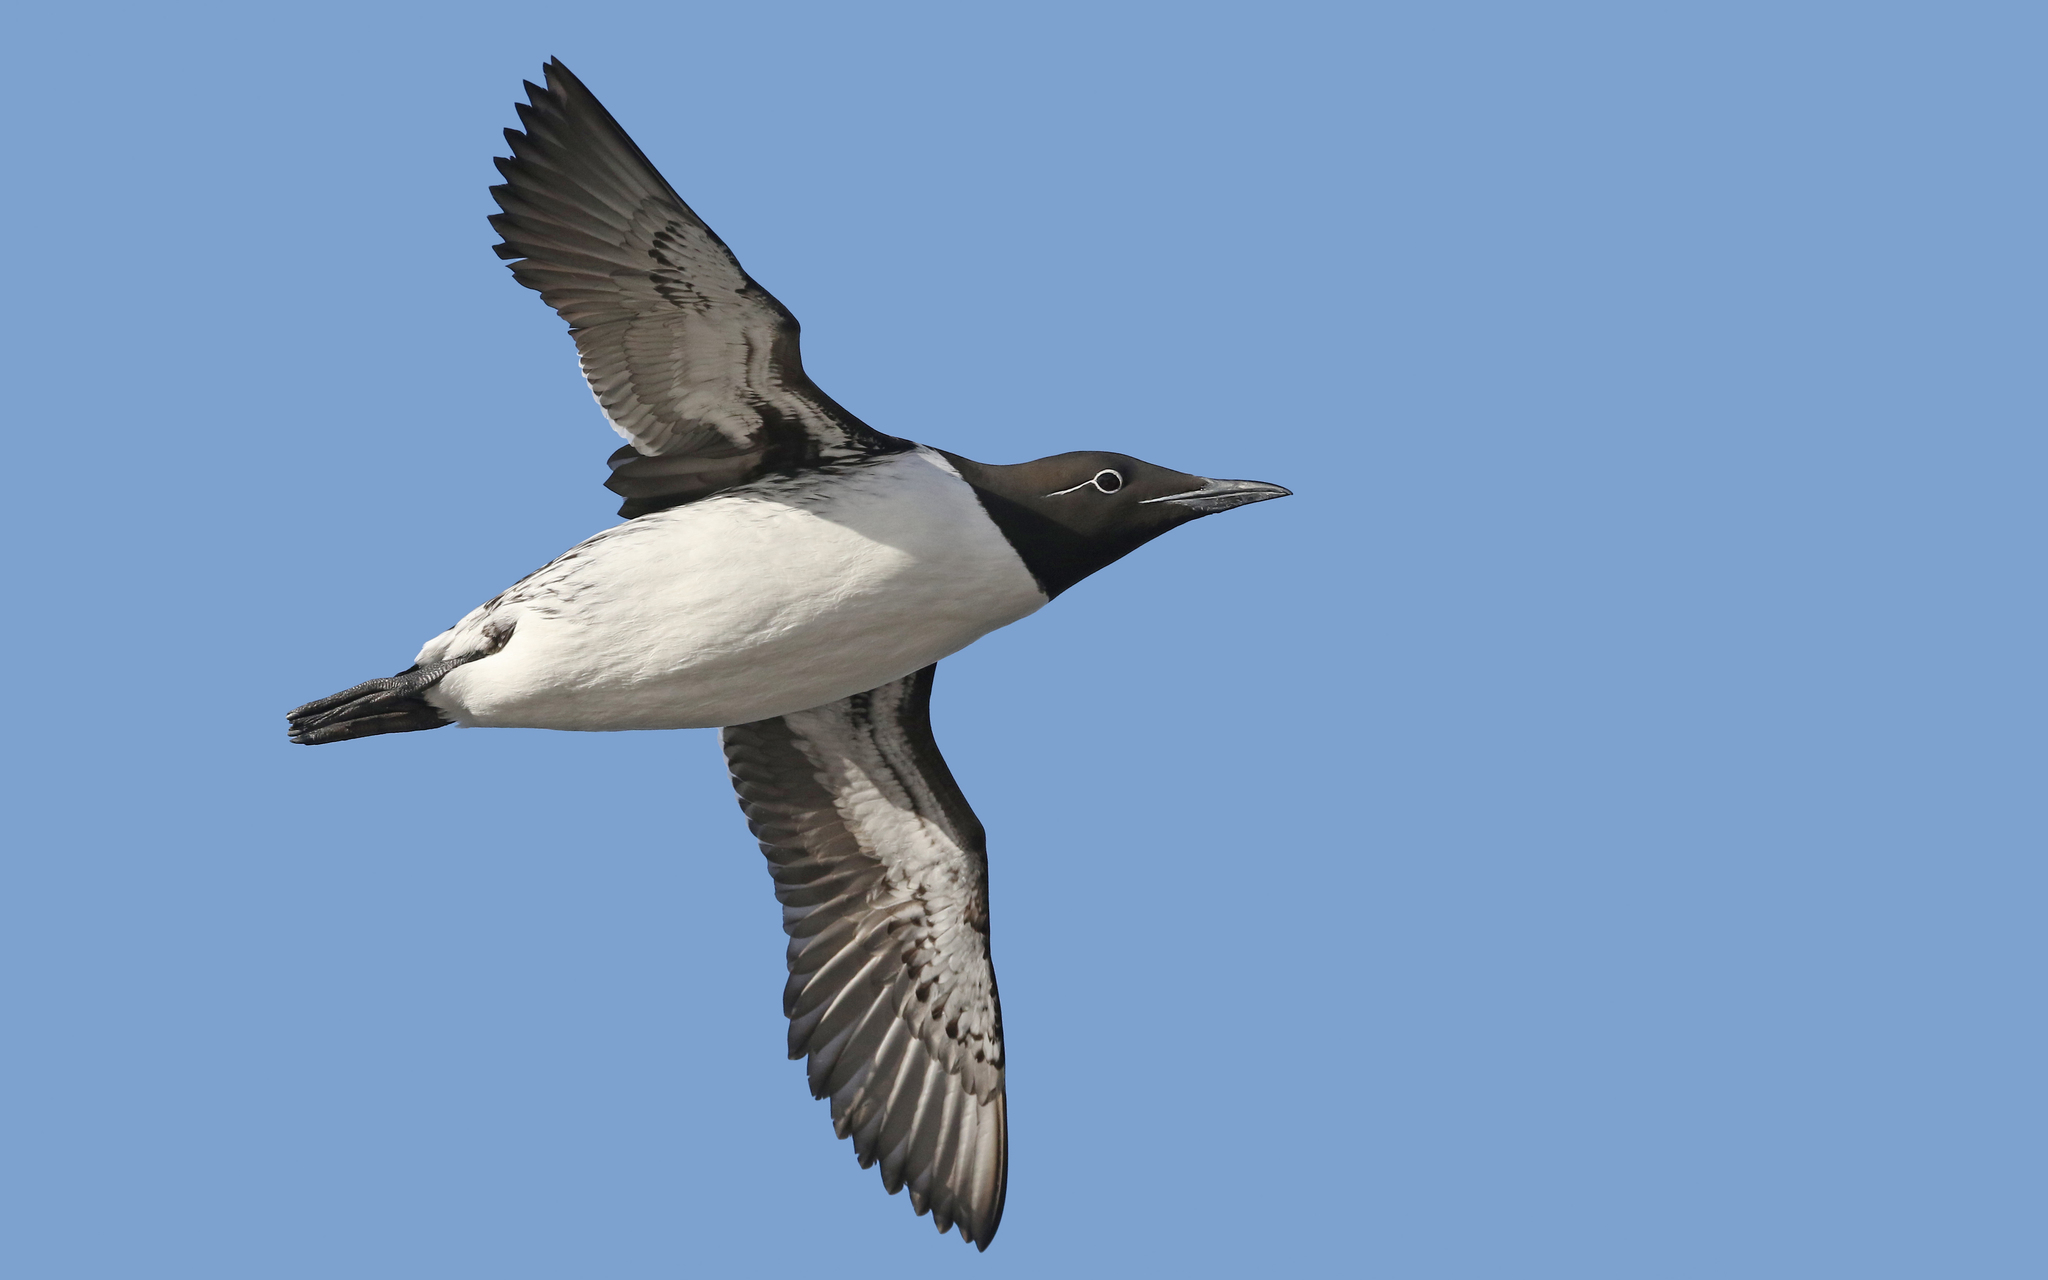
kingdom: Animalia
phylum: Chordata
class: Aves
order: Charadriiformes
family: Alcidae
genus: Uria
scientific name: Uria aalge
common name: Common murre
